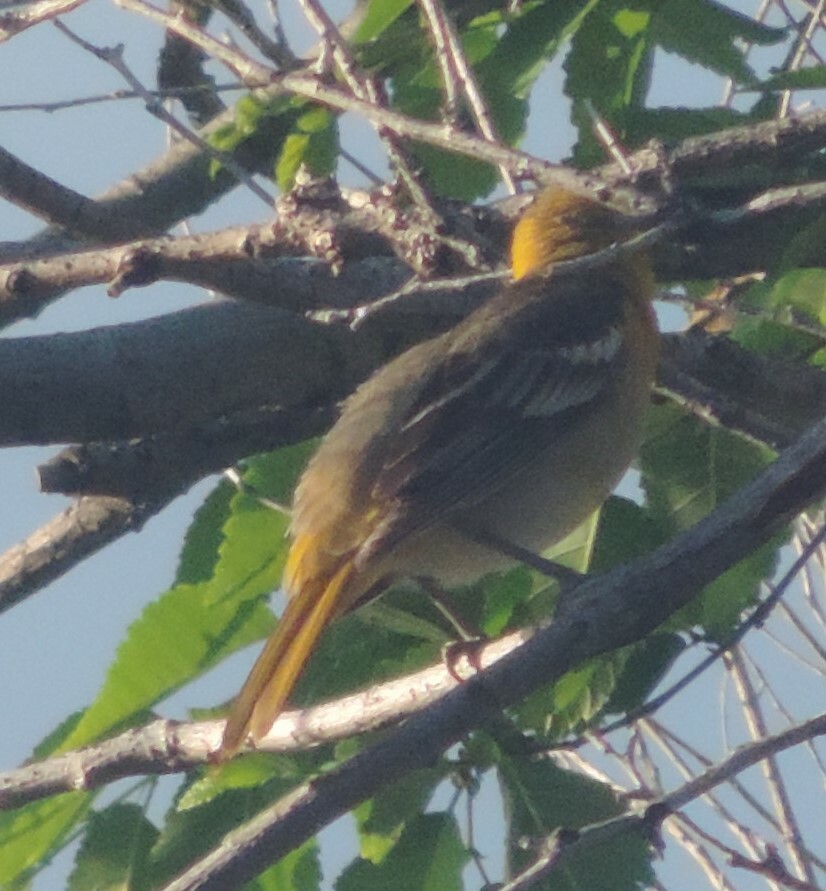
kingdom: Animalia
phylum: Chordata
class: Aves
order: Passeriformes
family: Icteridae
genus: Icterus
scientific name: Icterus bullockii
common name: Bullock's oriole
